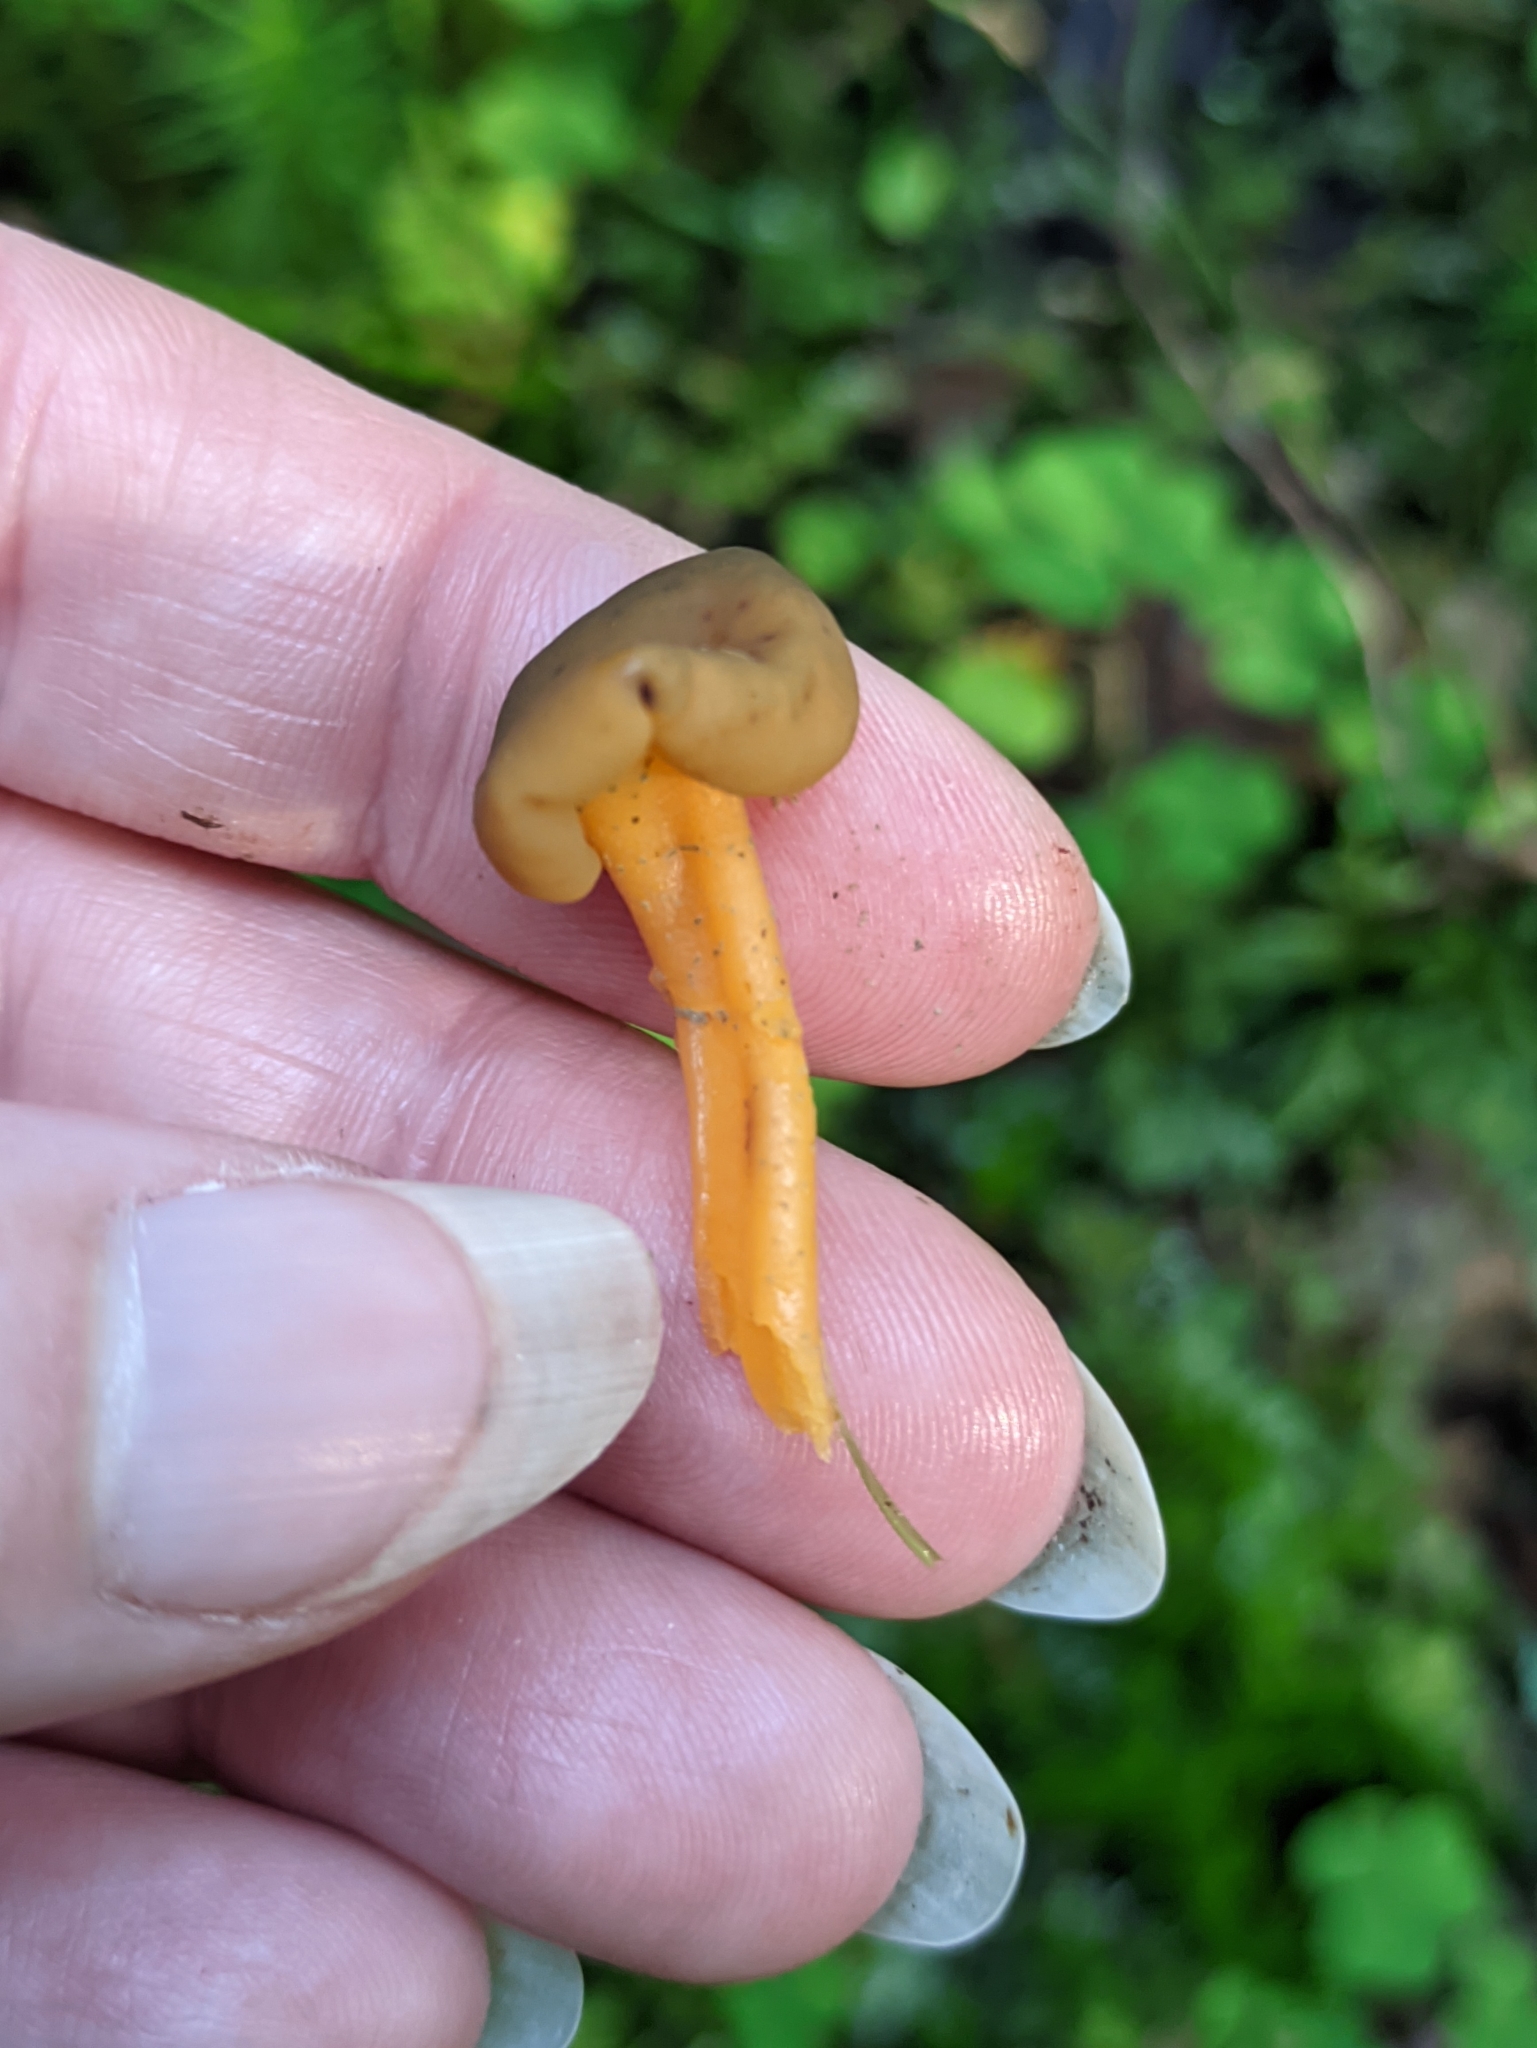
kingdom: Fungi
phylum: Ascomycota
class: Leotiomycetes
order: Leotiales
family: Leotiaceae
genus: Leotia
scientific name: Leotia lubrica
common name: Jellybaby
